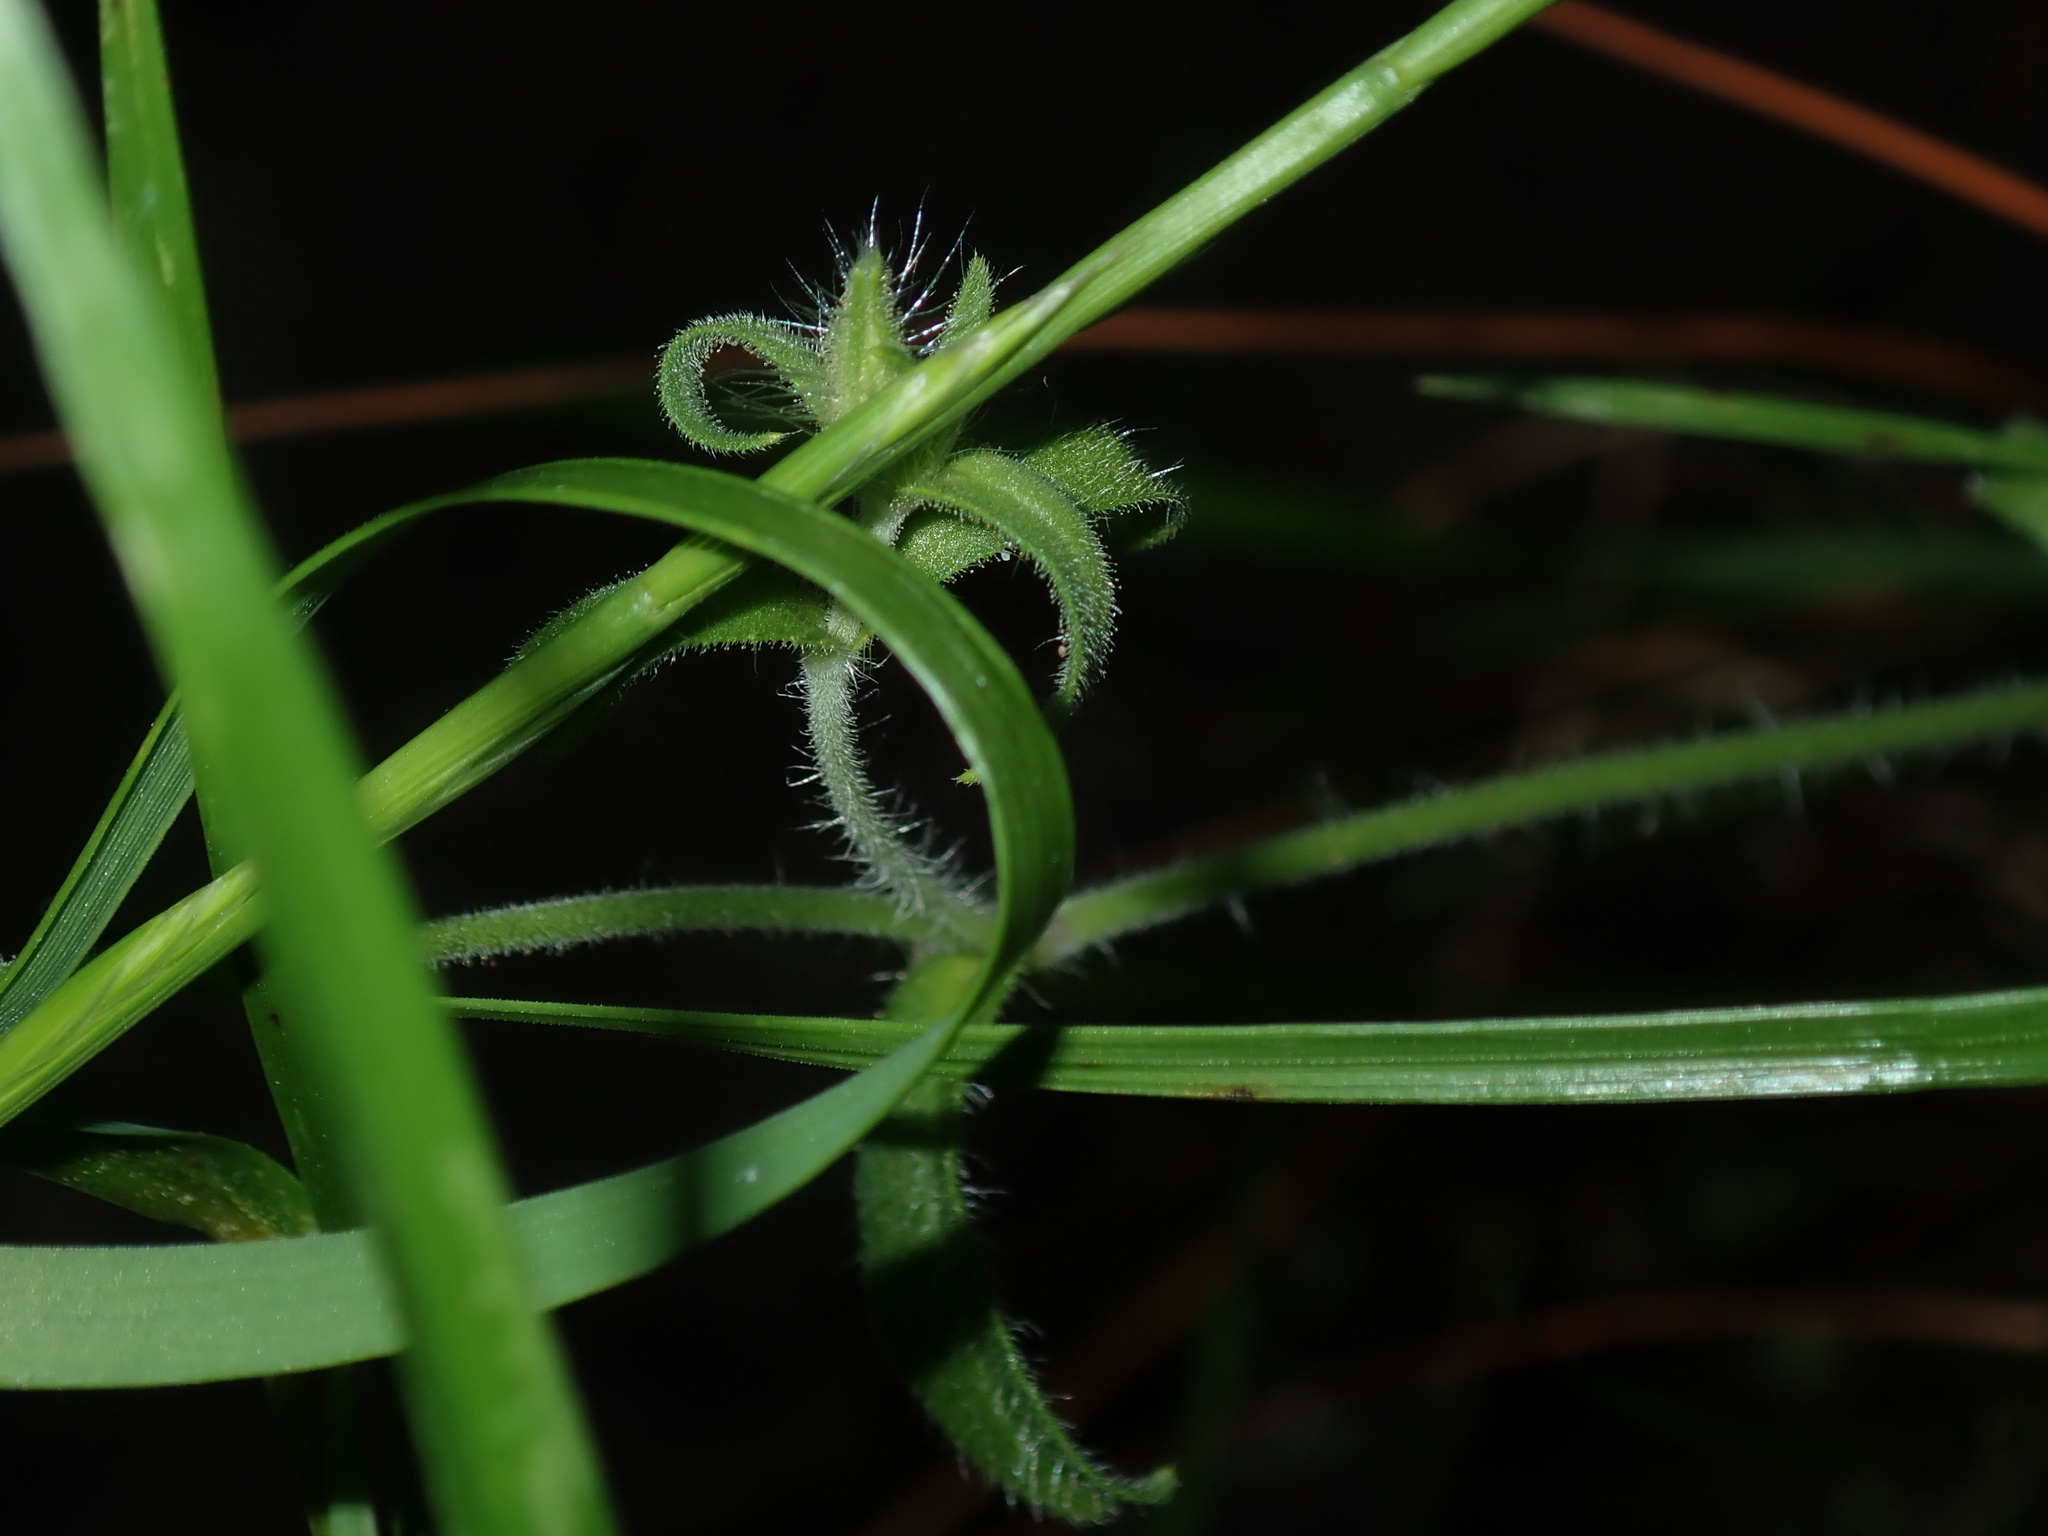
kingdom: Plantae
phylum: Tracheophyta
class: Magnoliopsida
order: Caryophyllales
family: Caryophyllaceae
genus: Silene
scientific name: Silene gallica
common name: Small-flowered catchfly
